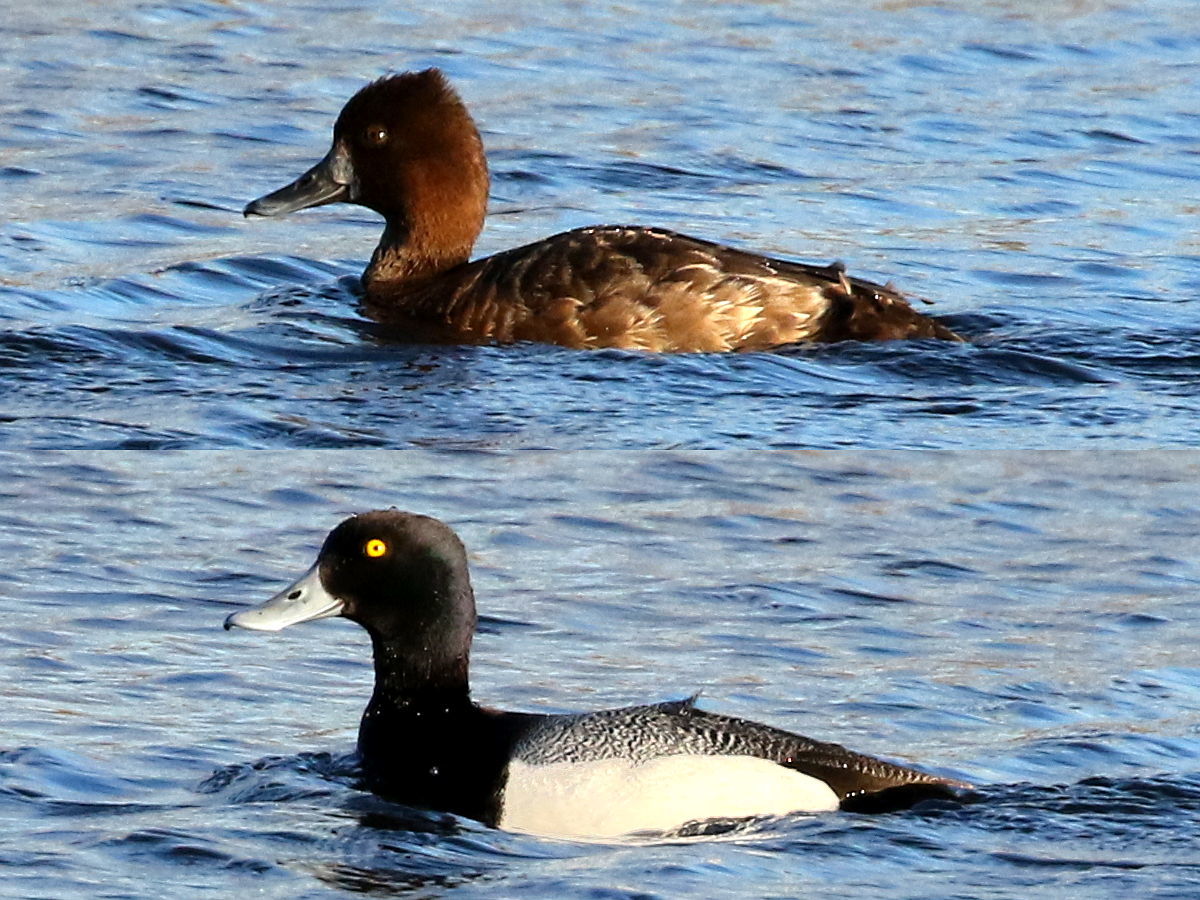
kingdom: Animalia
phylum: Chordata
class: Aves
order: Anseriformes
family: Anatidae
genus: Aythya
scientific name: Aythya affinis
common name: Lesser scaup
